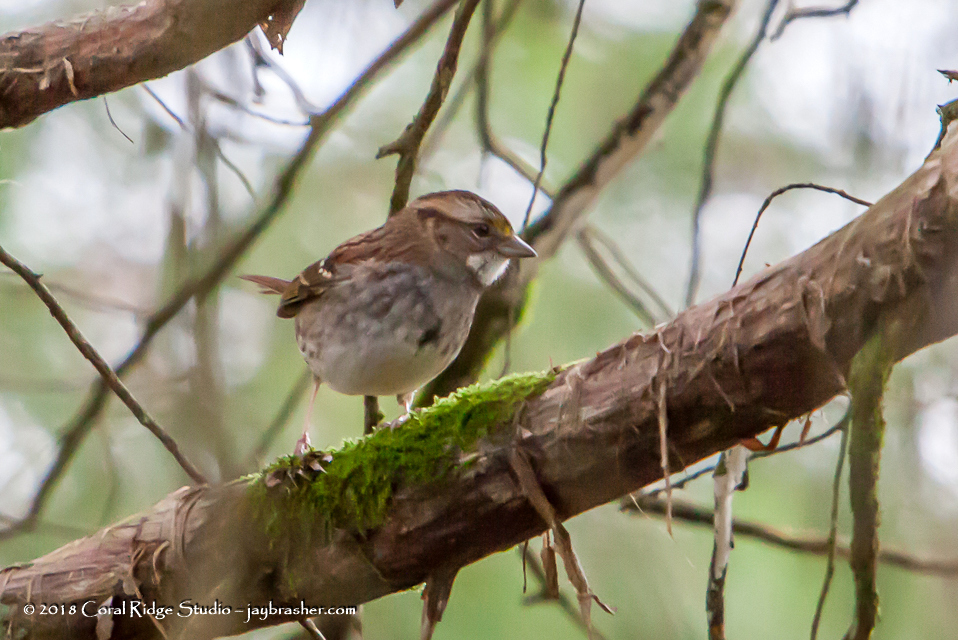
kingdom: Animalia
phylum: Chordata
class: Aves
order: Passeriformes
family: Passerellidae
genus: Zonotrichia
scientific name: Zonotrichia albicollis
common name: White-throated sparrow
